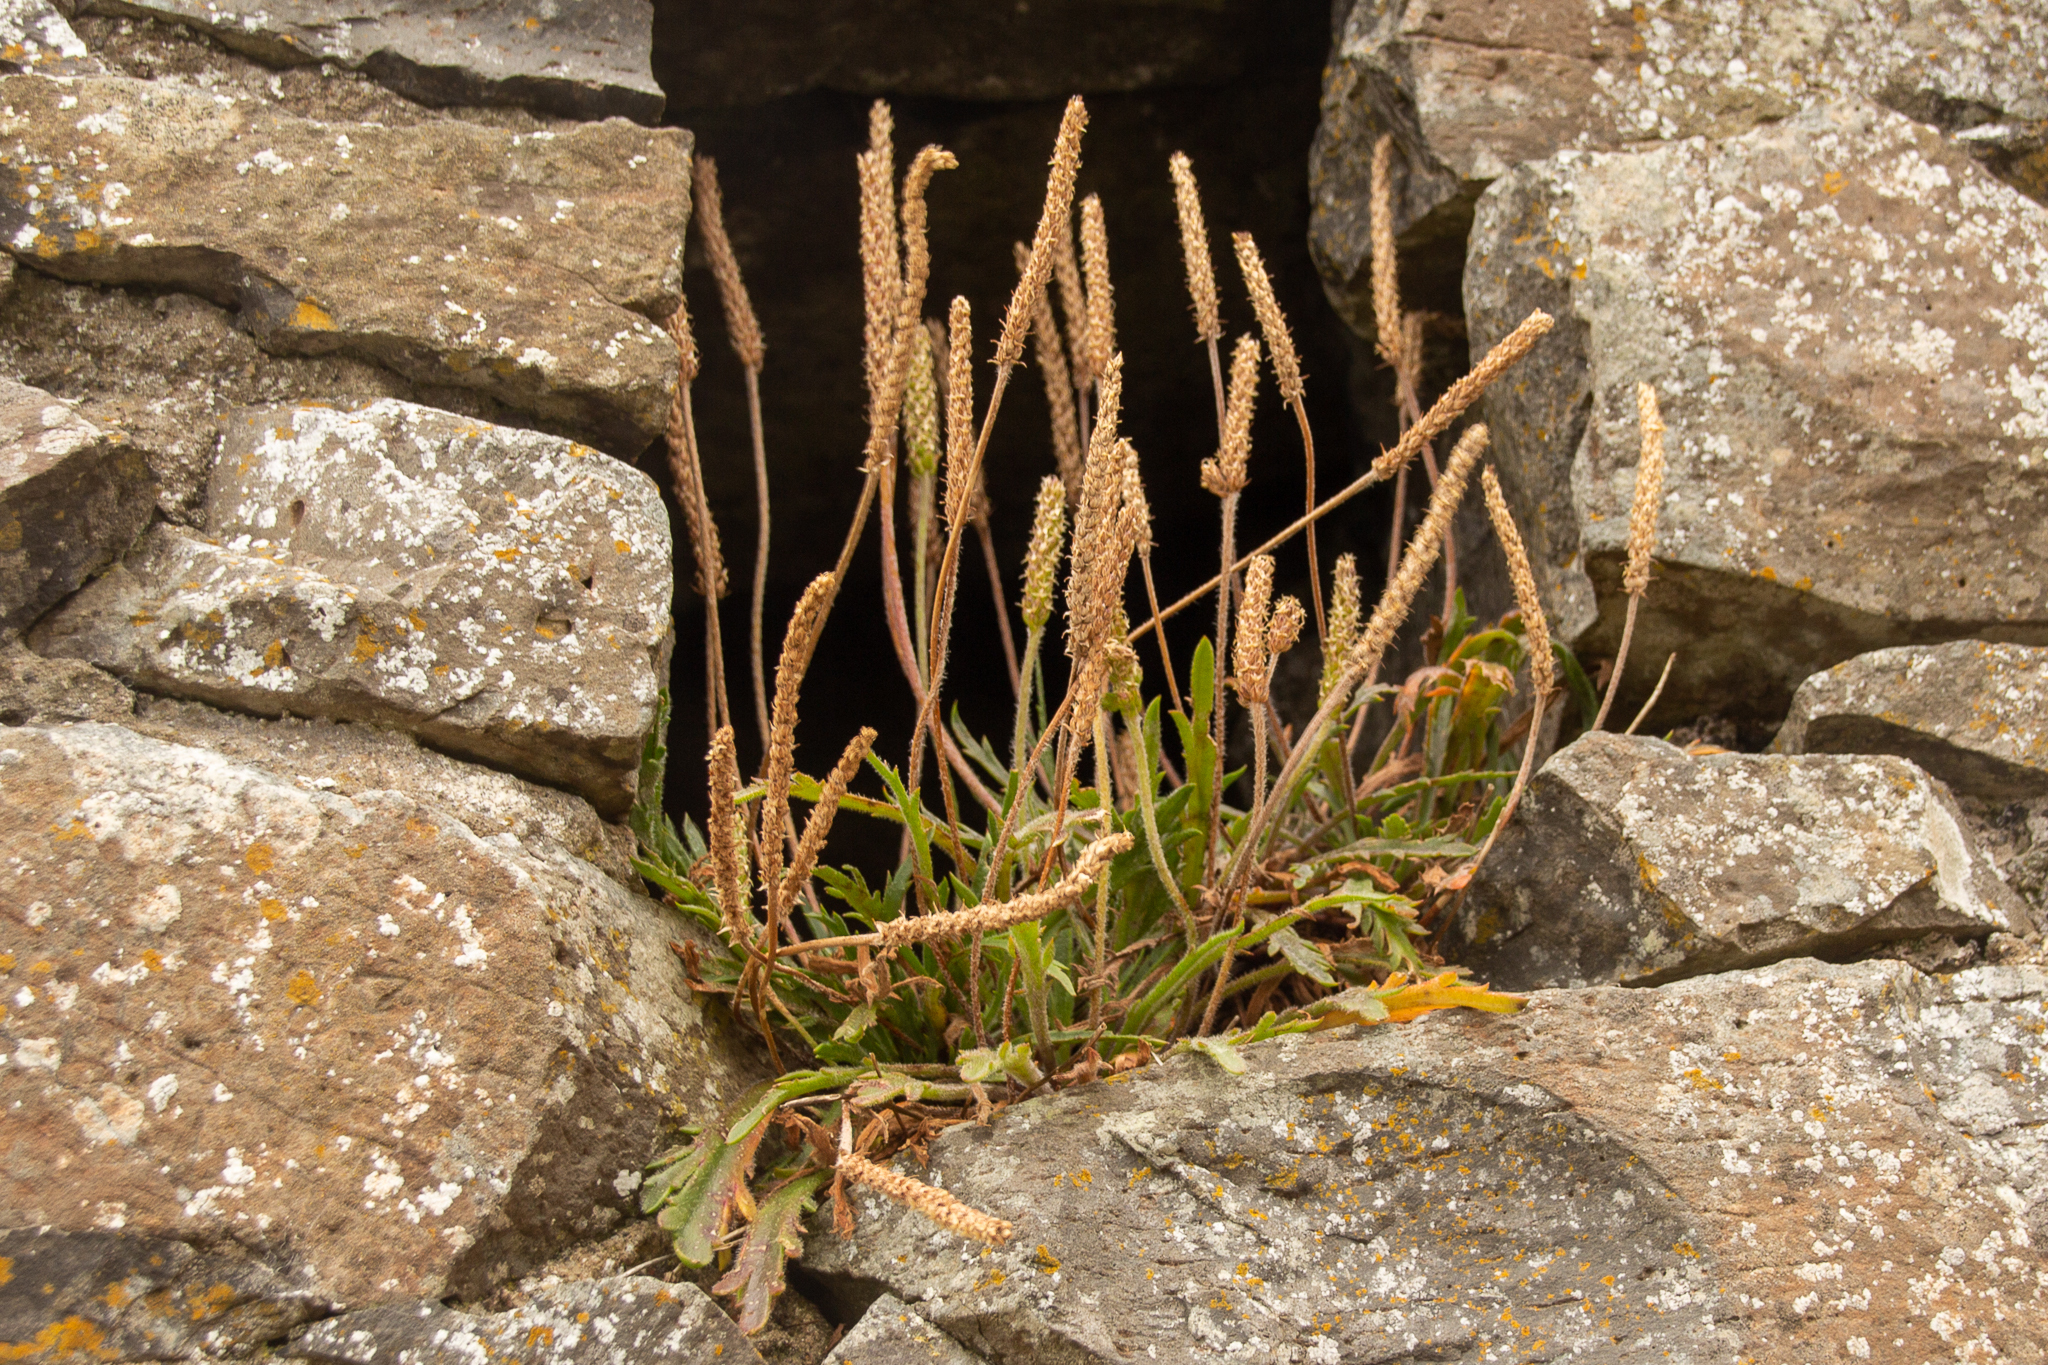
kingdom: Plantae
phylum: Tracheophyta
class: Magnoliopsida
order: Lamiales
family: Plantaginaceae
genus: Plantago
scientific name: Plantago coronopus
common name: Buck's-horn plantain
